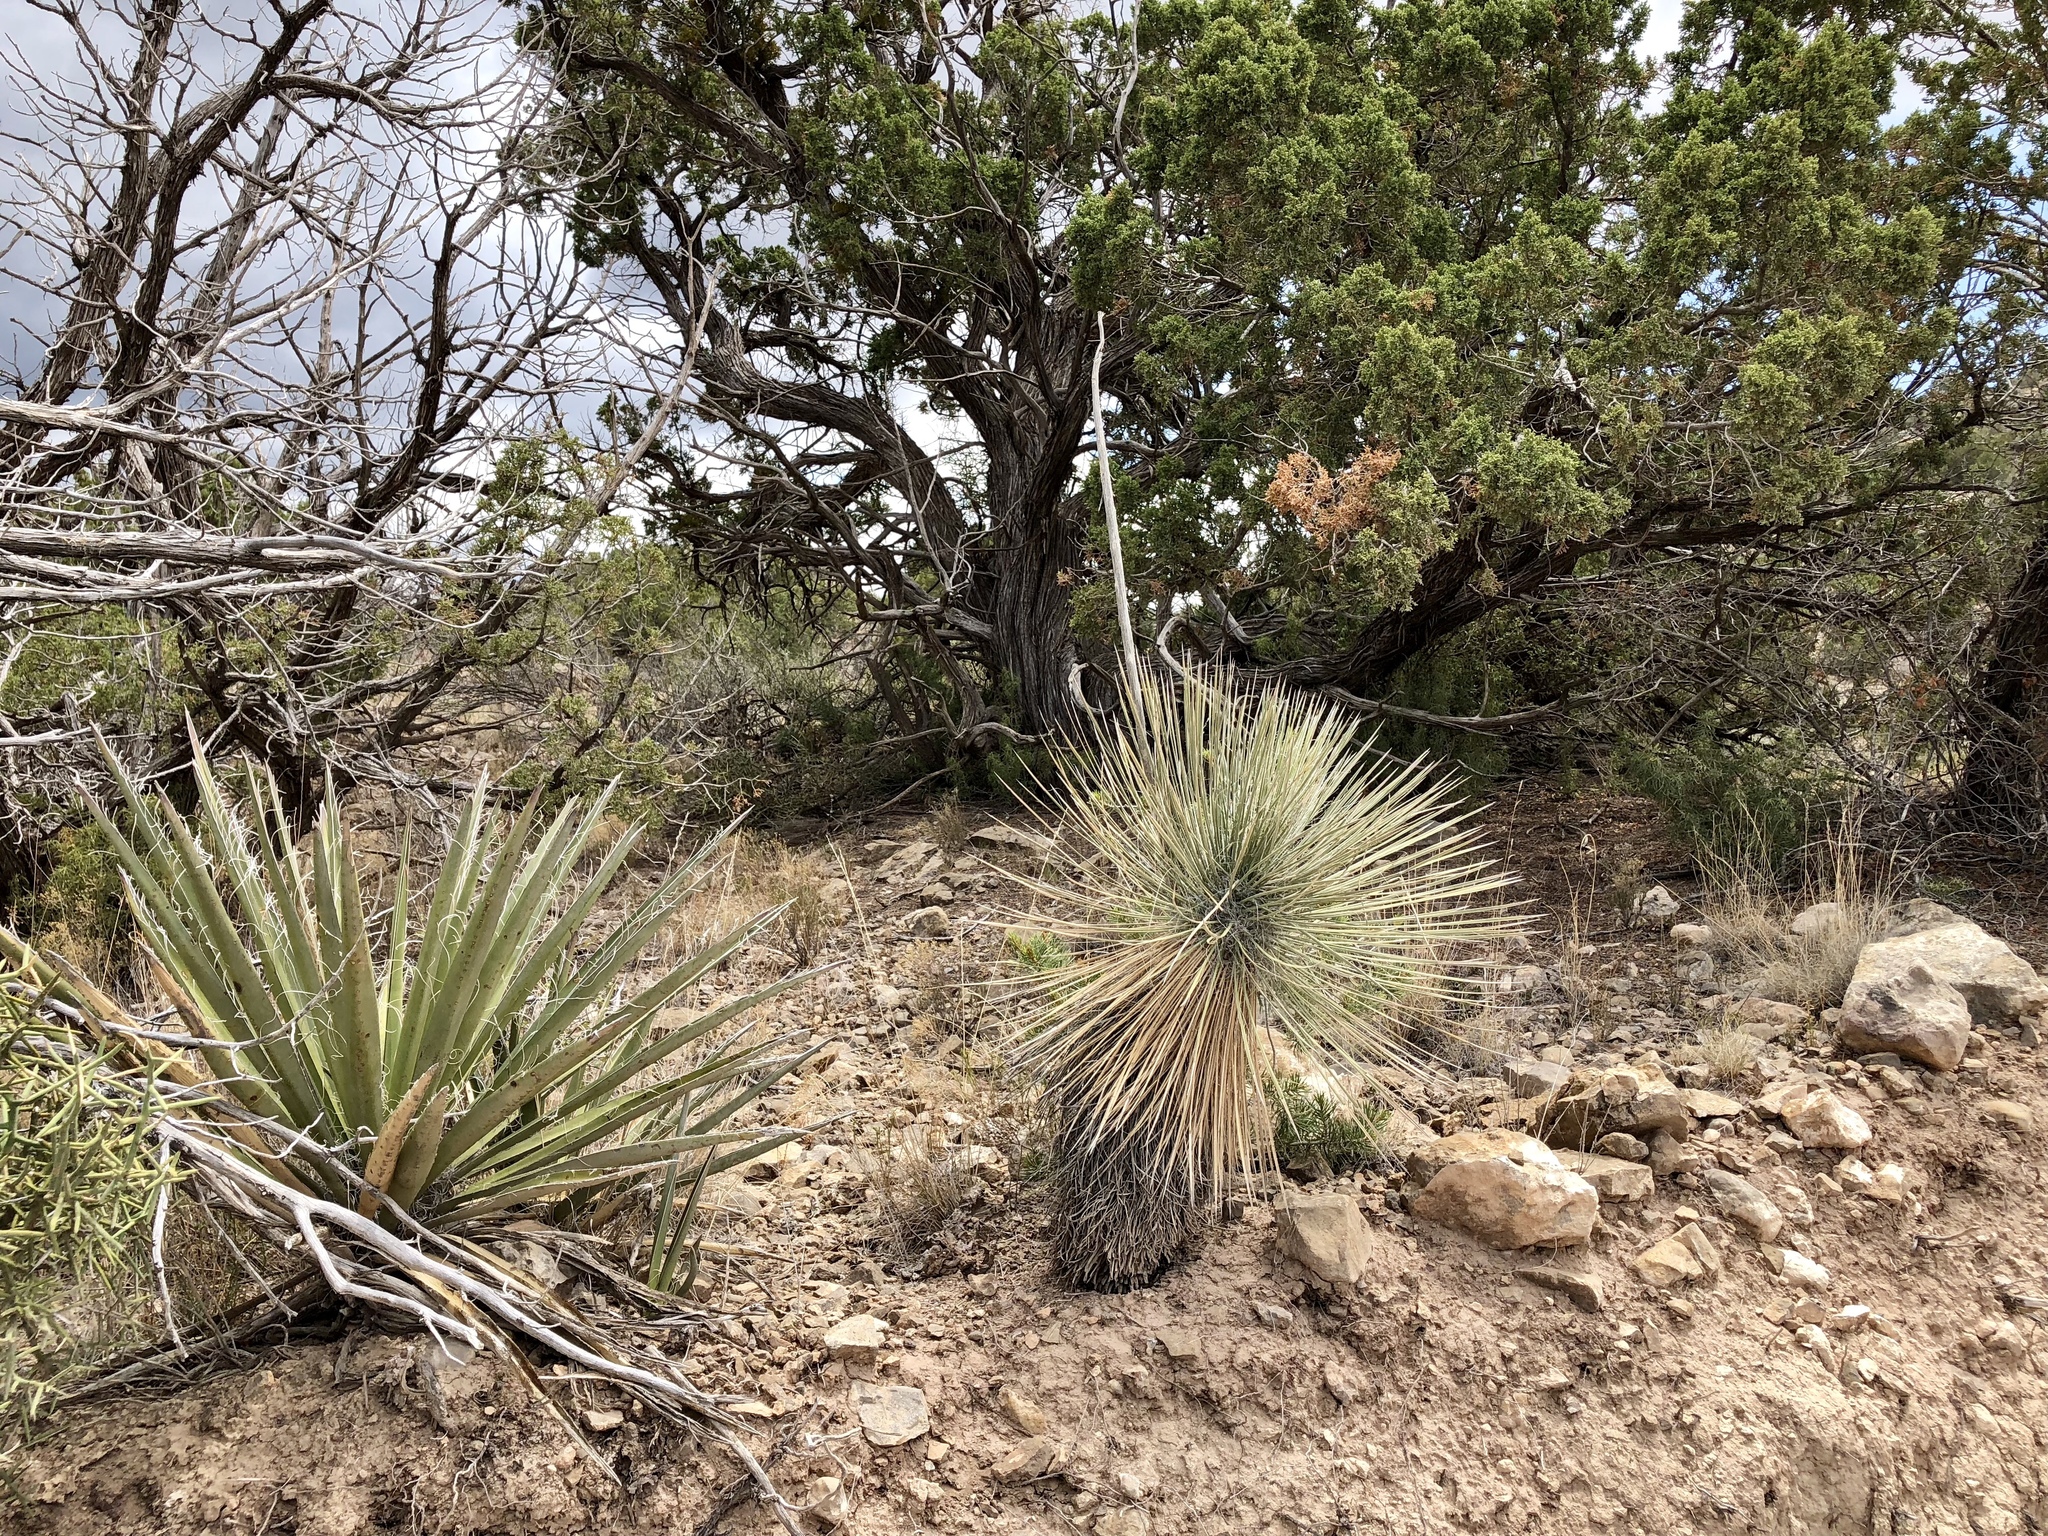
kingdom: Plantae
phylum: Tracheophyta
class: Liliopsida
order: Asparagales
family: Asparagaceae
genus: Yucca
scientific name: Yucca baccata
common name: Banana yucca
